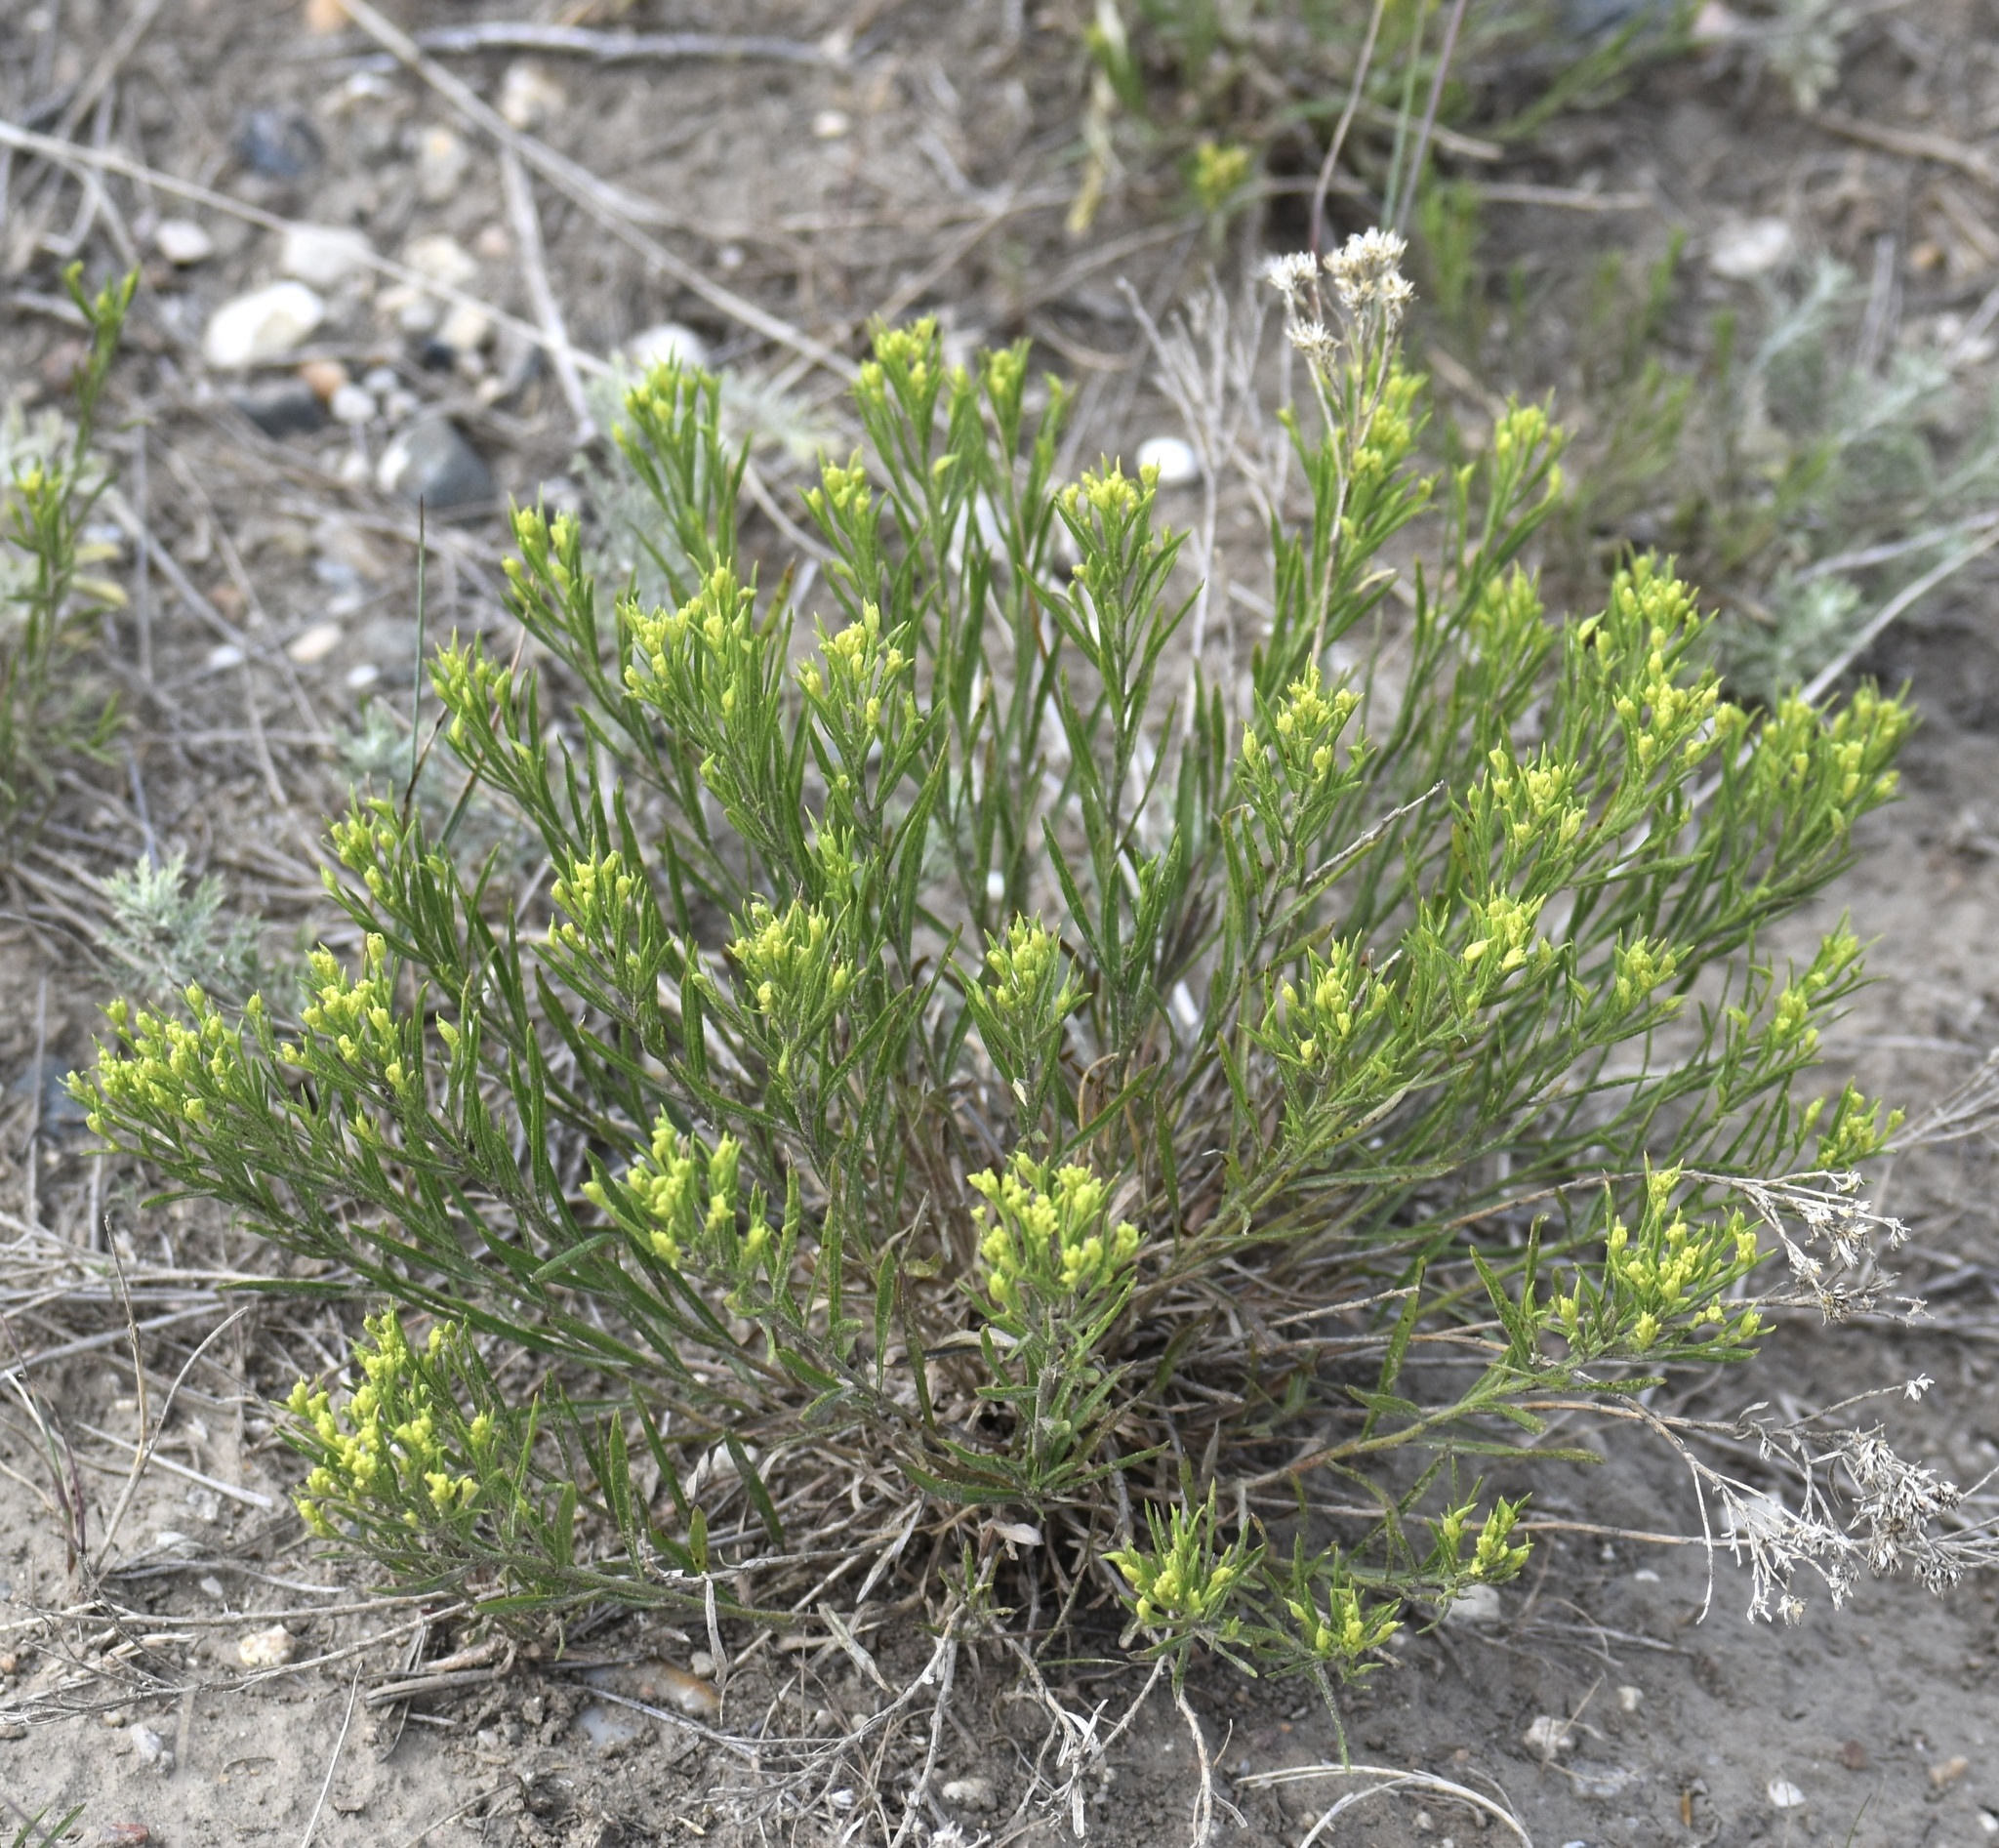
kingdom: Plantae
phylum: Tracheophyta
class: Magnoliopsida
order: Asterales
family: Asteraceae
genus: Gutierrezia
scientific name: Gutierrezia sarothrae
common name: Broom snakeweed
